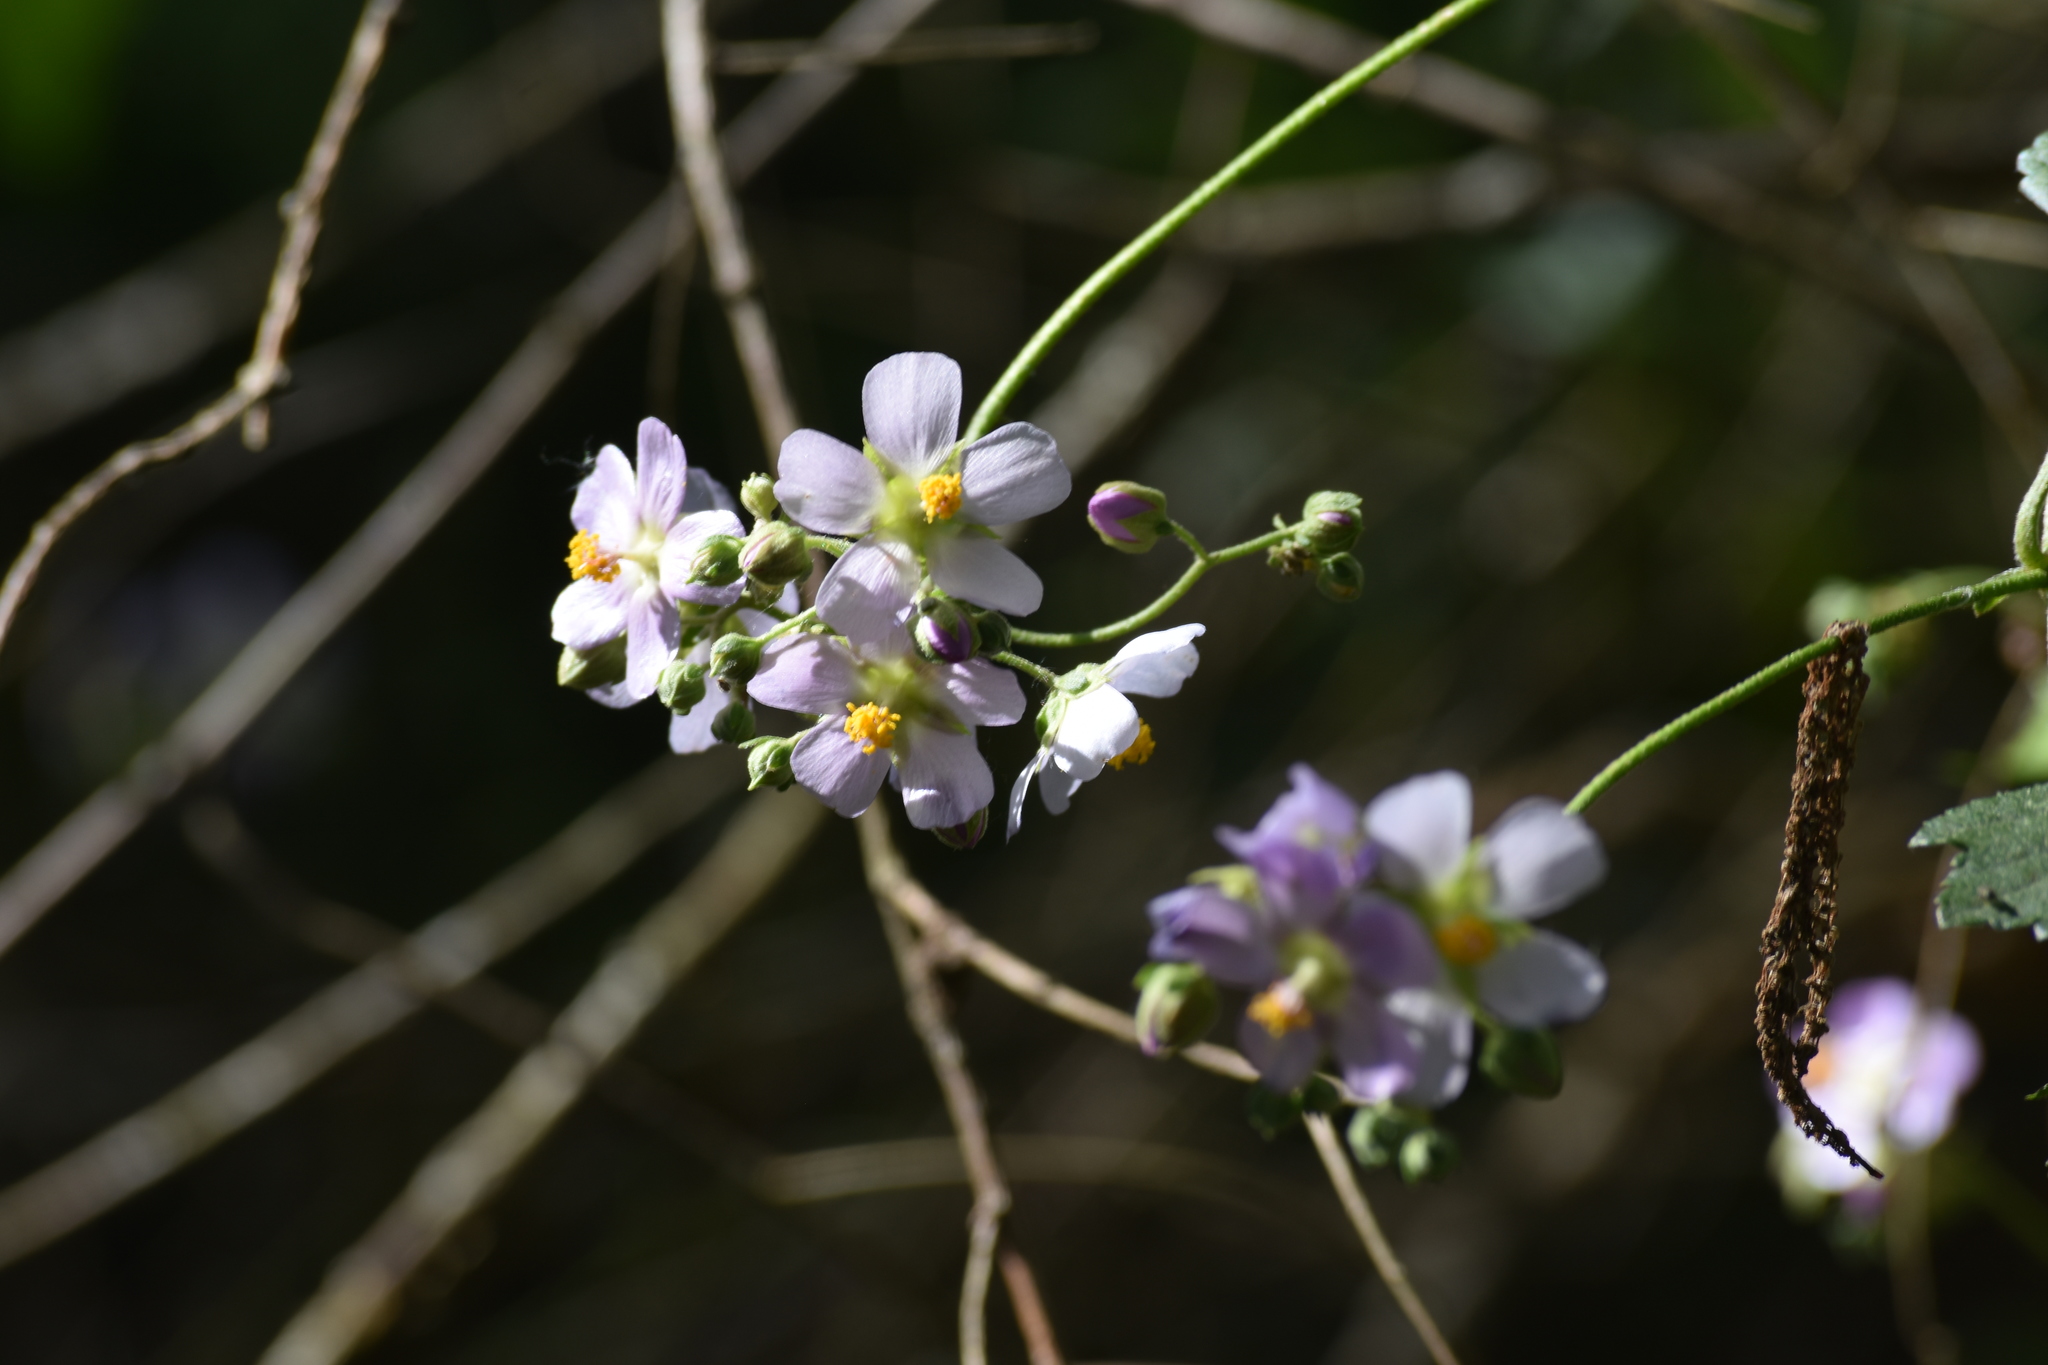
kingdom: Plantae
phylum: Tracheophyta
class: Magnoliopsida
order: Malvales
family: Malvaceae
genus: Monteiroa
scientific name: Monteiroa glomerata
